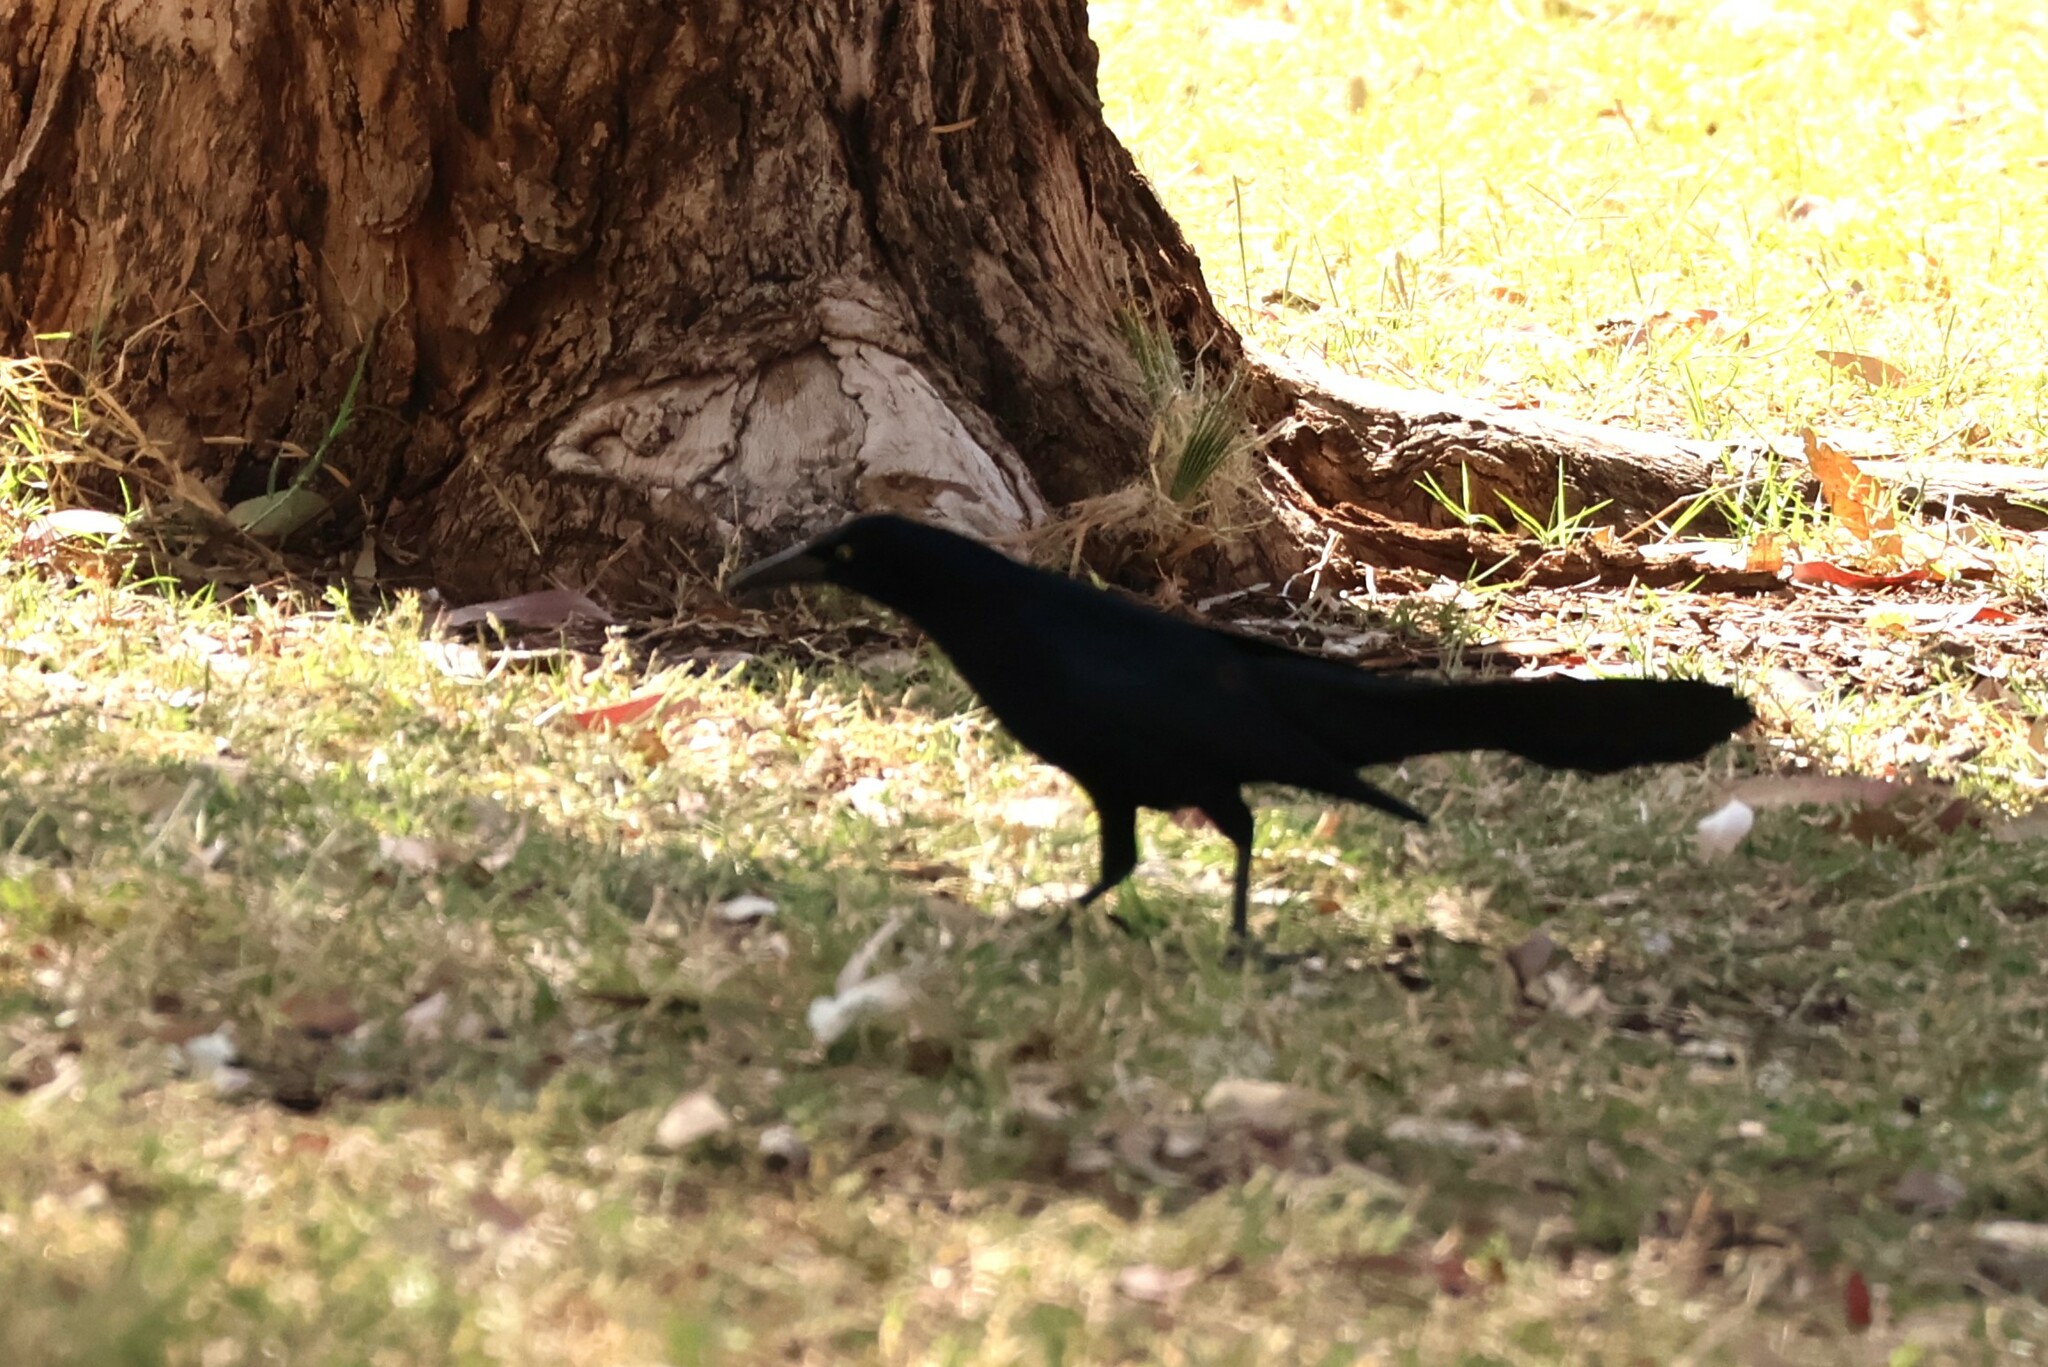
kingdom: Animalia
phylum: Chordata
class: Aves
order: Passeriformes
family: Icteridae
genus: Quiscalus
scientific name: Quiscalus mexicanus
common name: Great-tailed grackle
